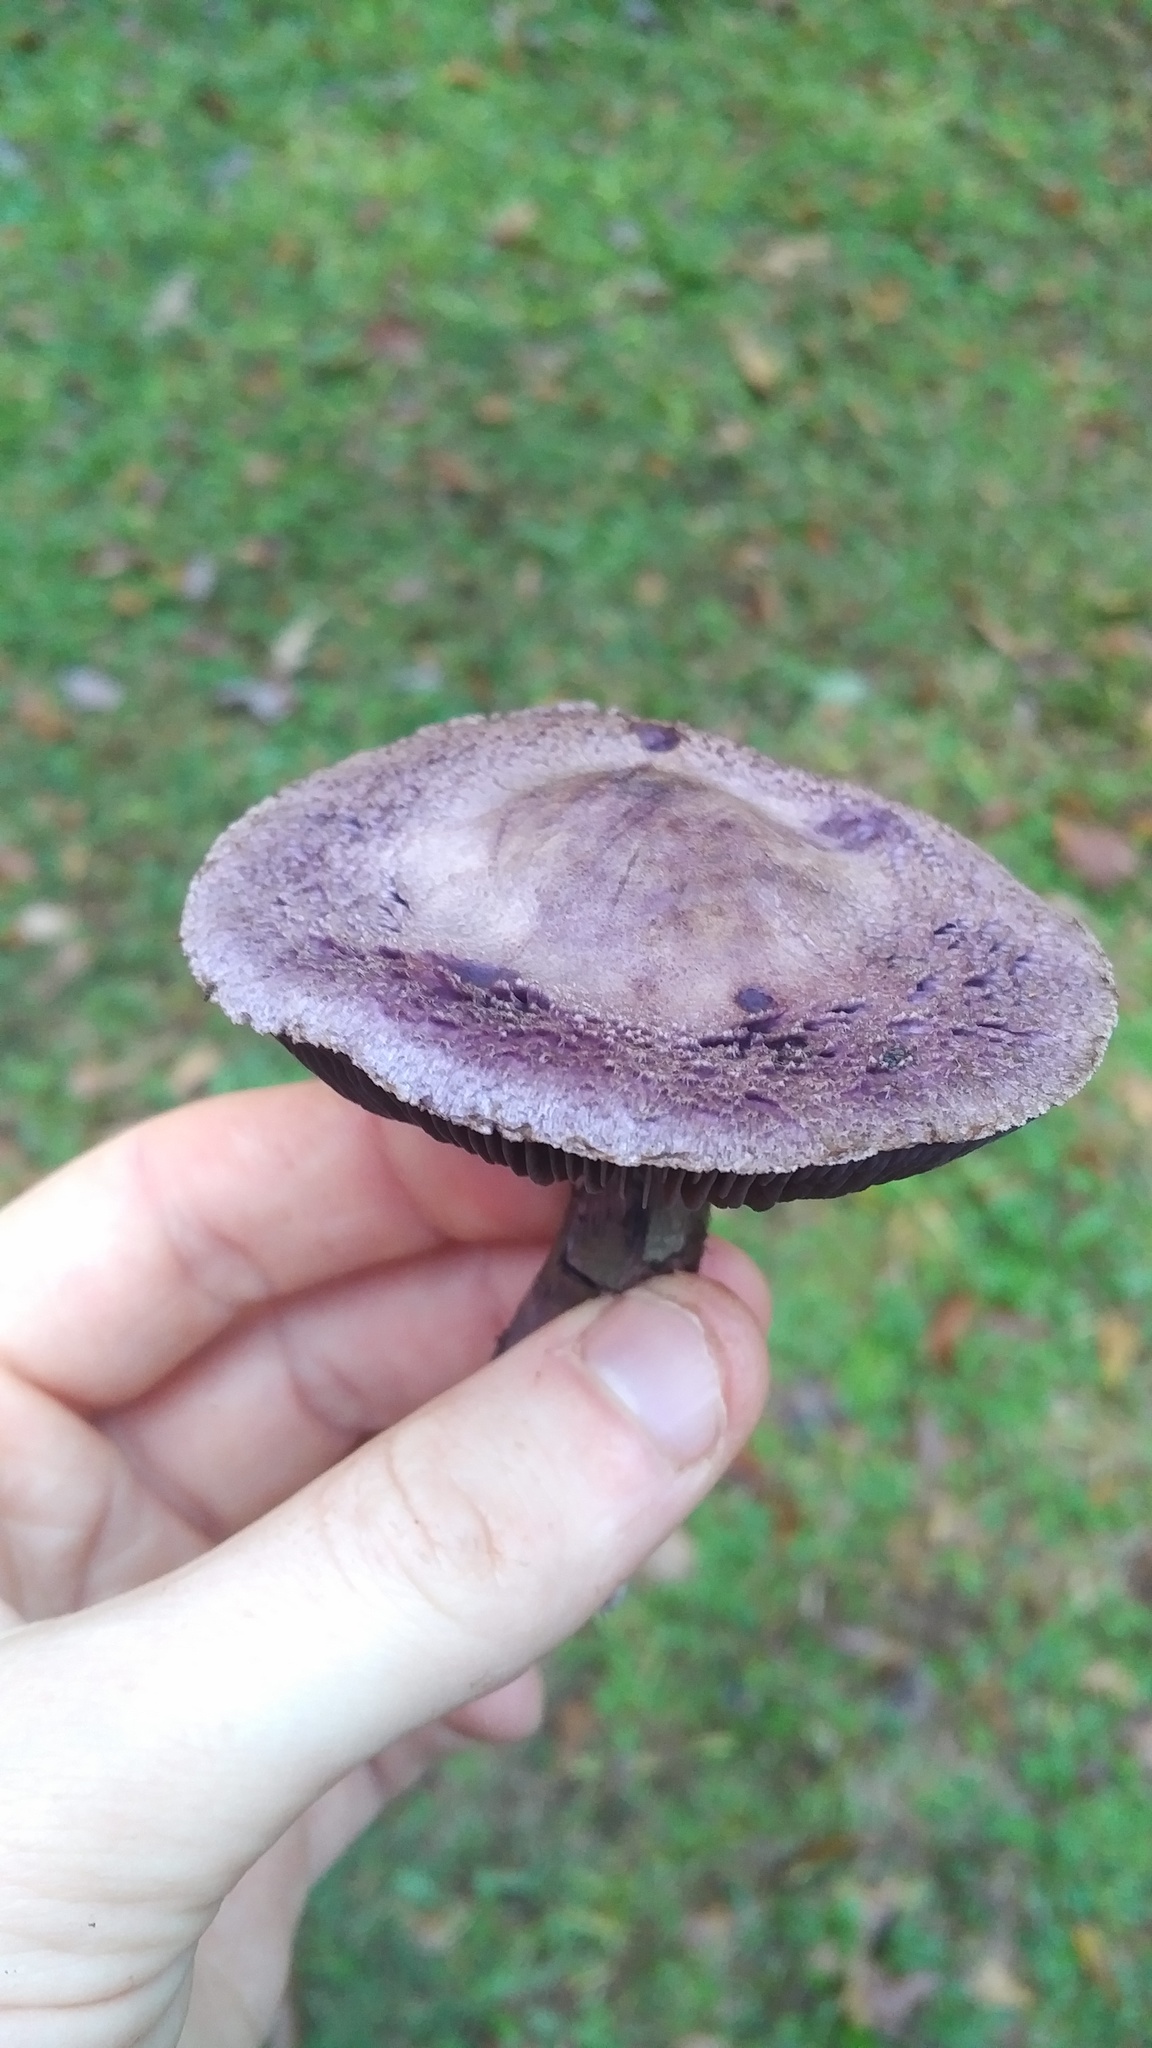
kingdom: Fungi
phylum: Basidiomycota
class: Agaricomycetes
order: Agaricales
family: Cortinariaceae
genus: Cortinarius
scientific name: Cortinarius violaceus
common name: Violet webcap
